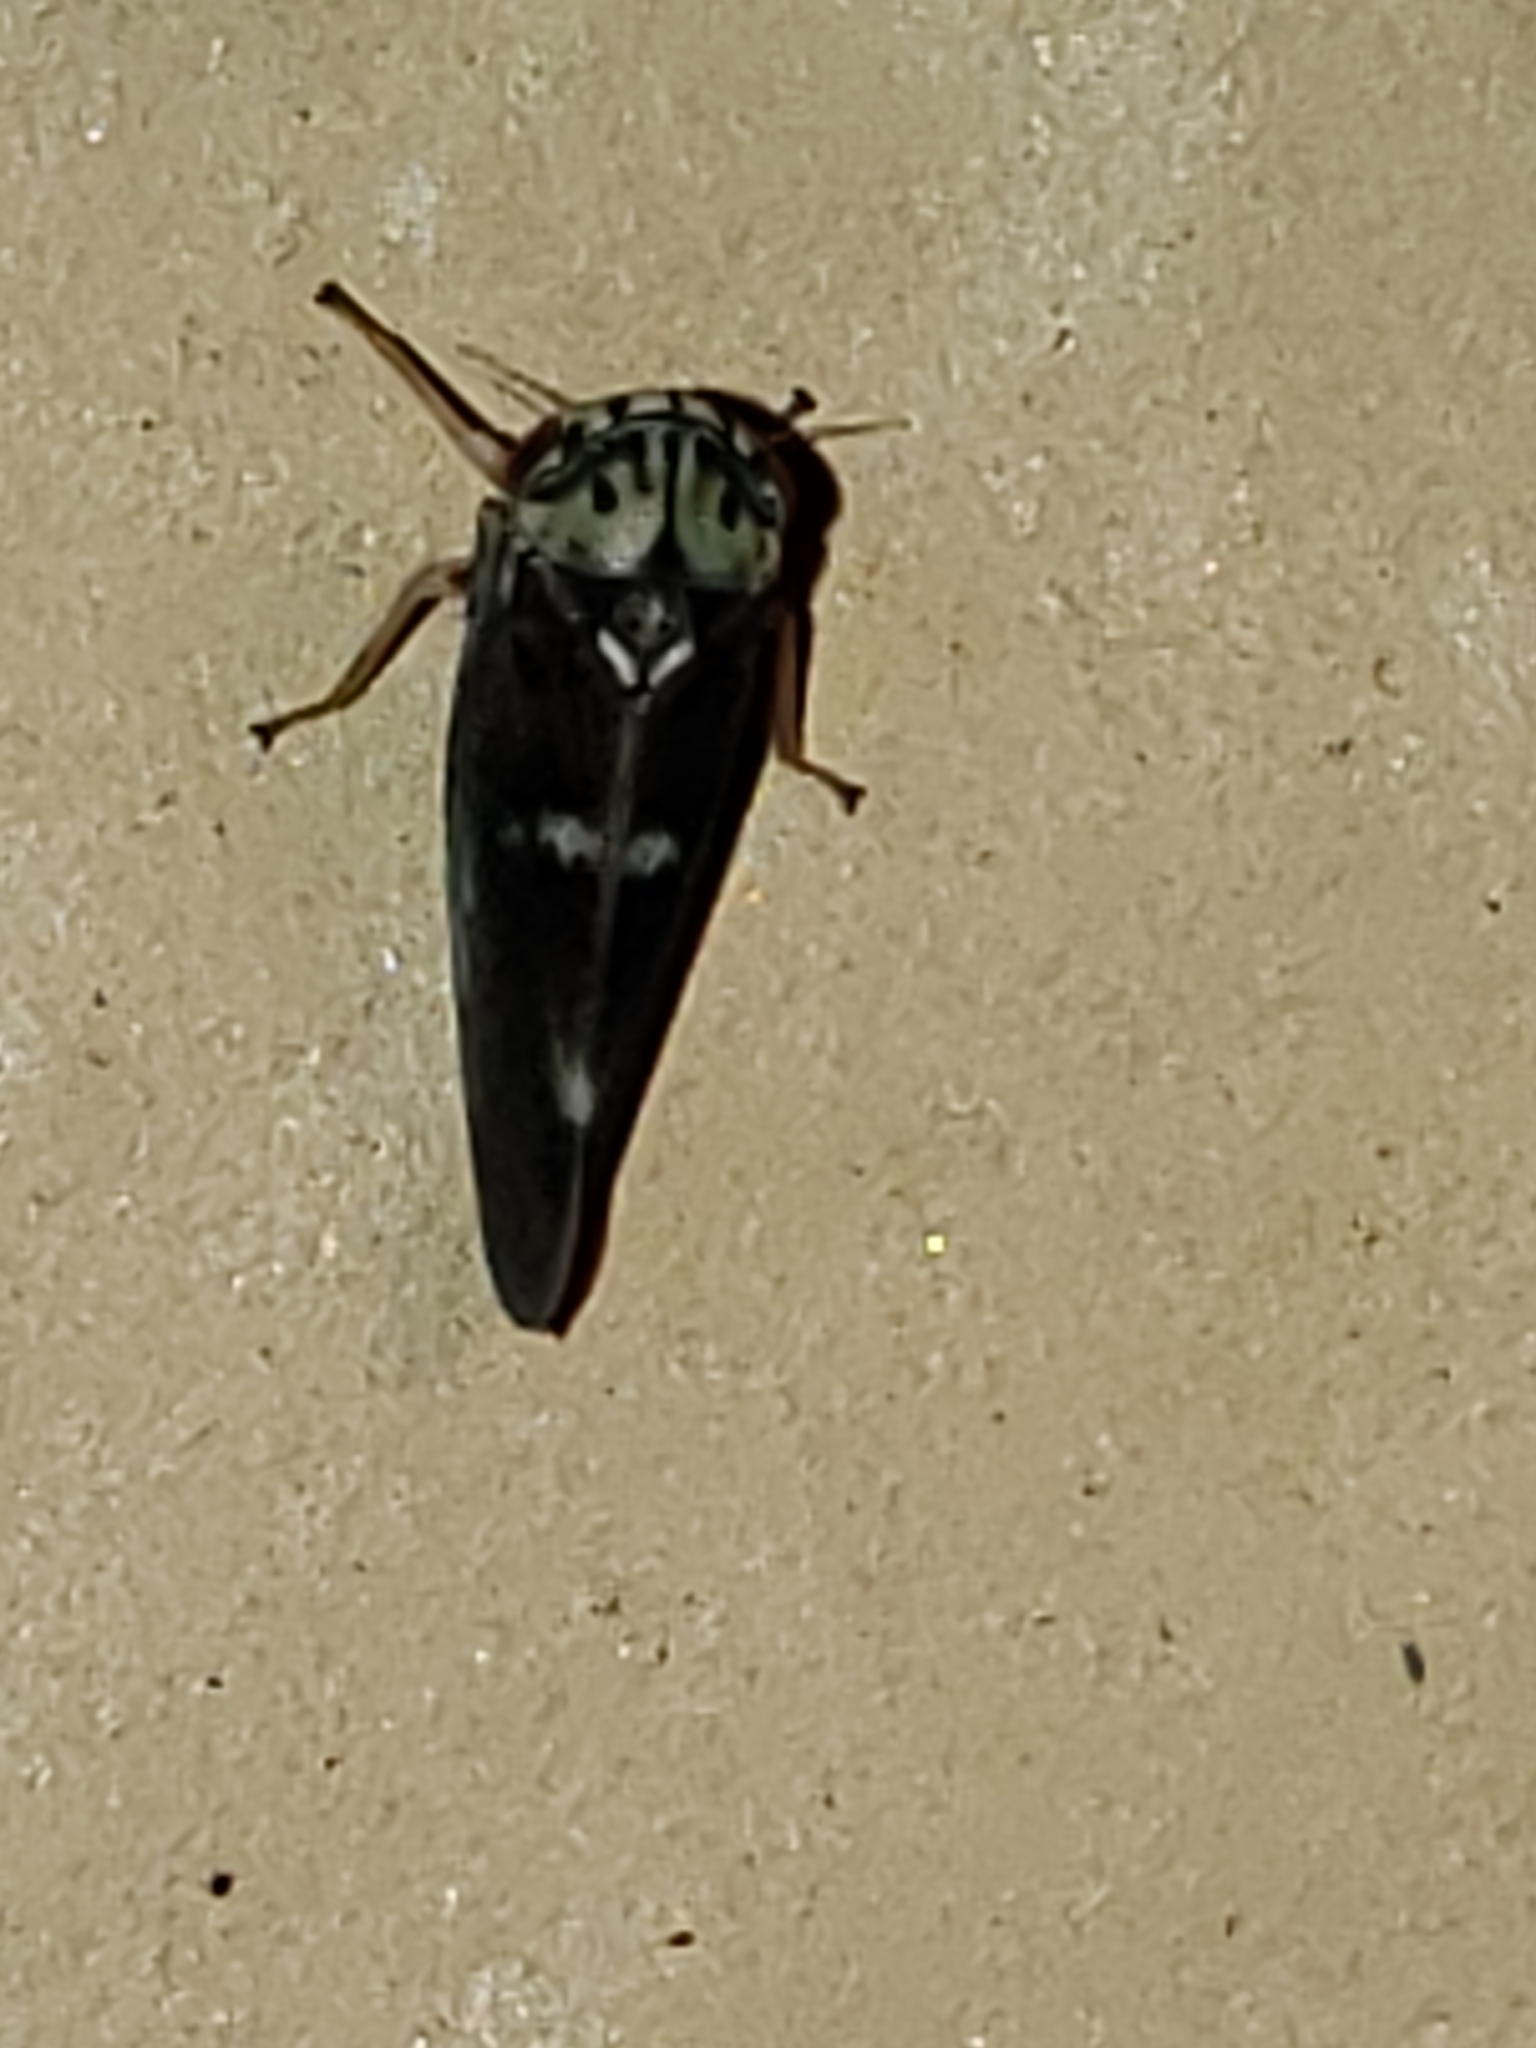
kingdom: Animalia
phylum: Arthropoda
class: Insecta
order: Hemiptera
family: Cicadellidae
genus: Agalliopsis
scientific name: Agalliopsis cervina
